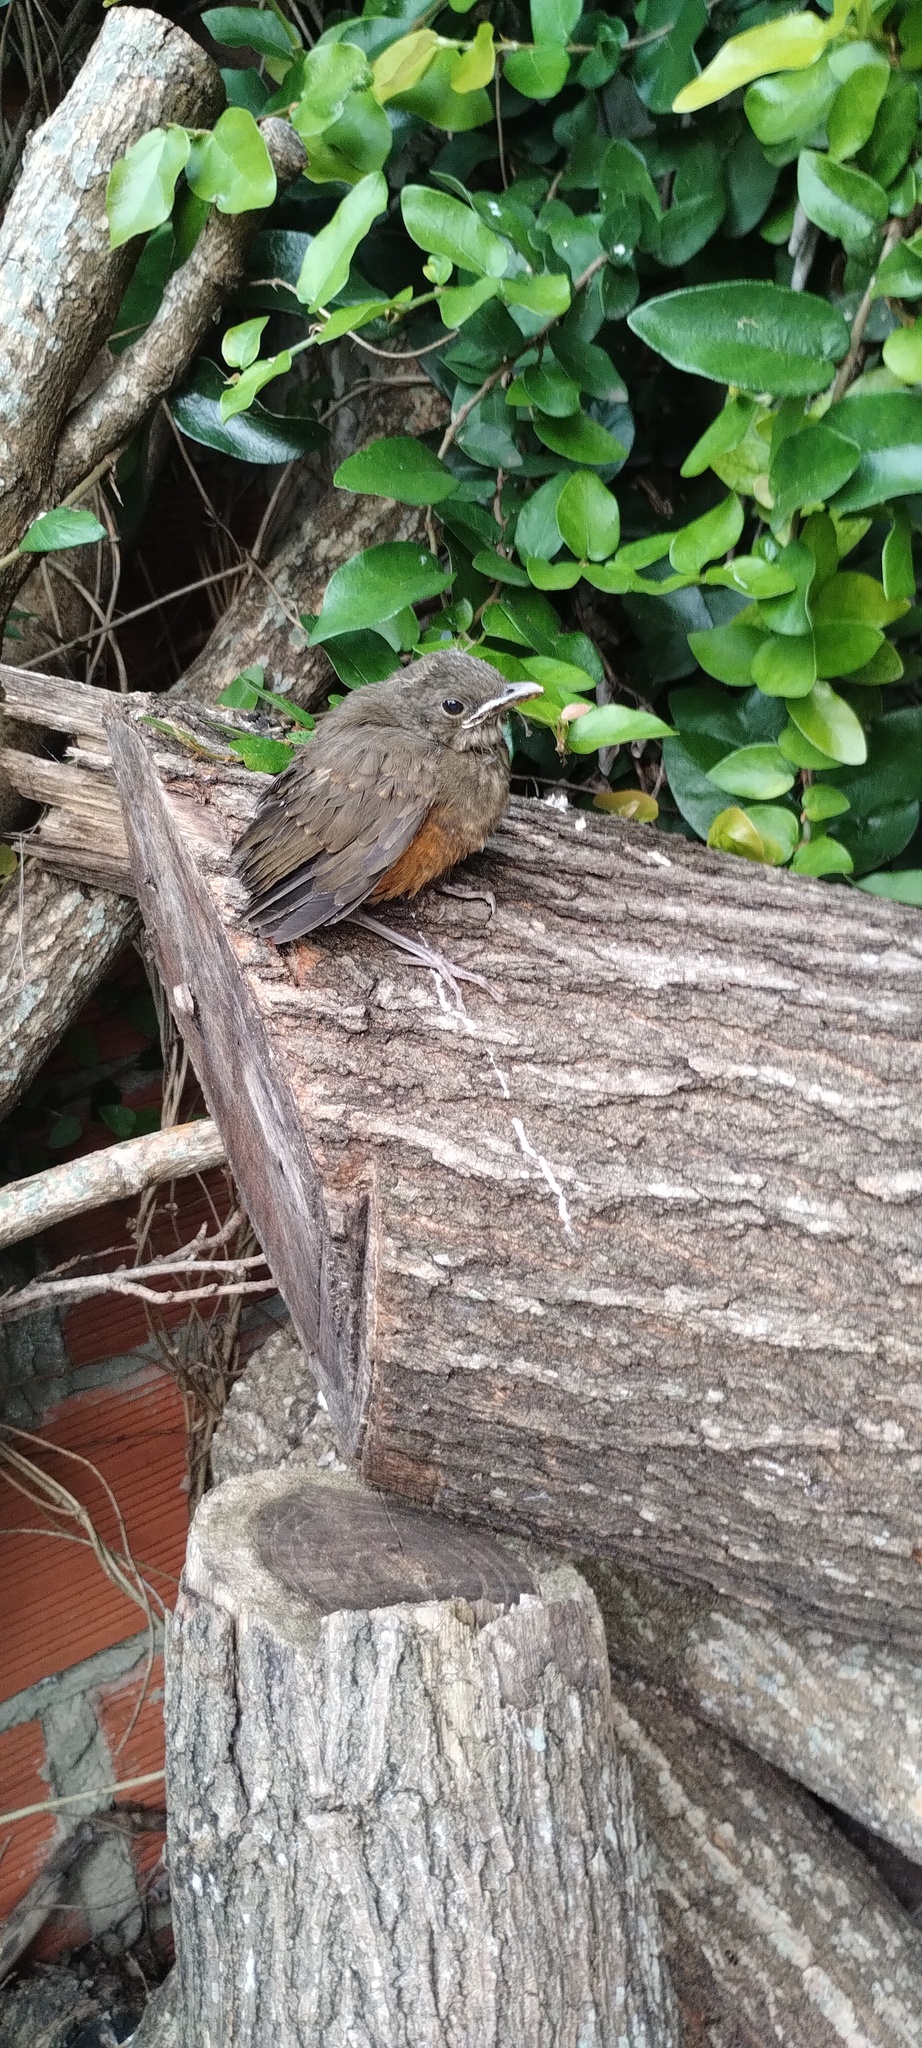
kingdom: Animalia
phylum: Chordata
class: Aves
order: Passeriformes
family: Turdidae
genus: Turdus
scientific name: Turdus rufiventris
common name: Rufous-bellied thrush
